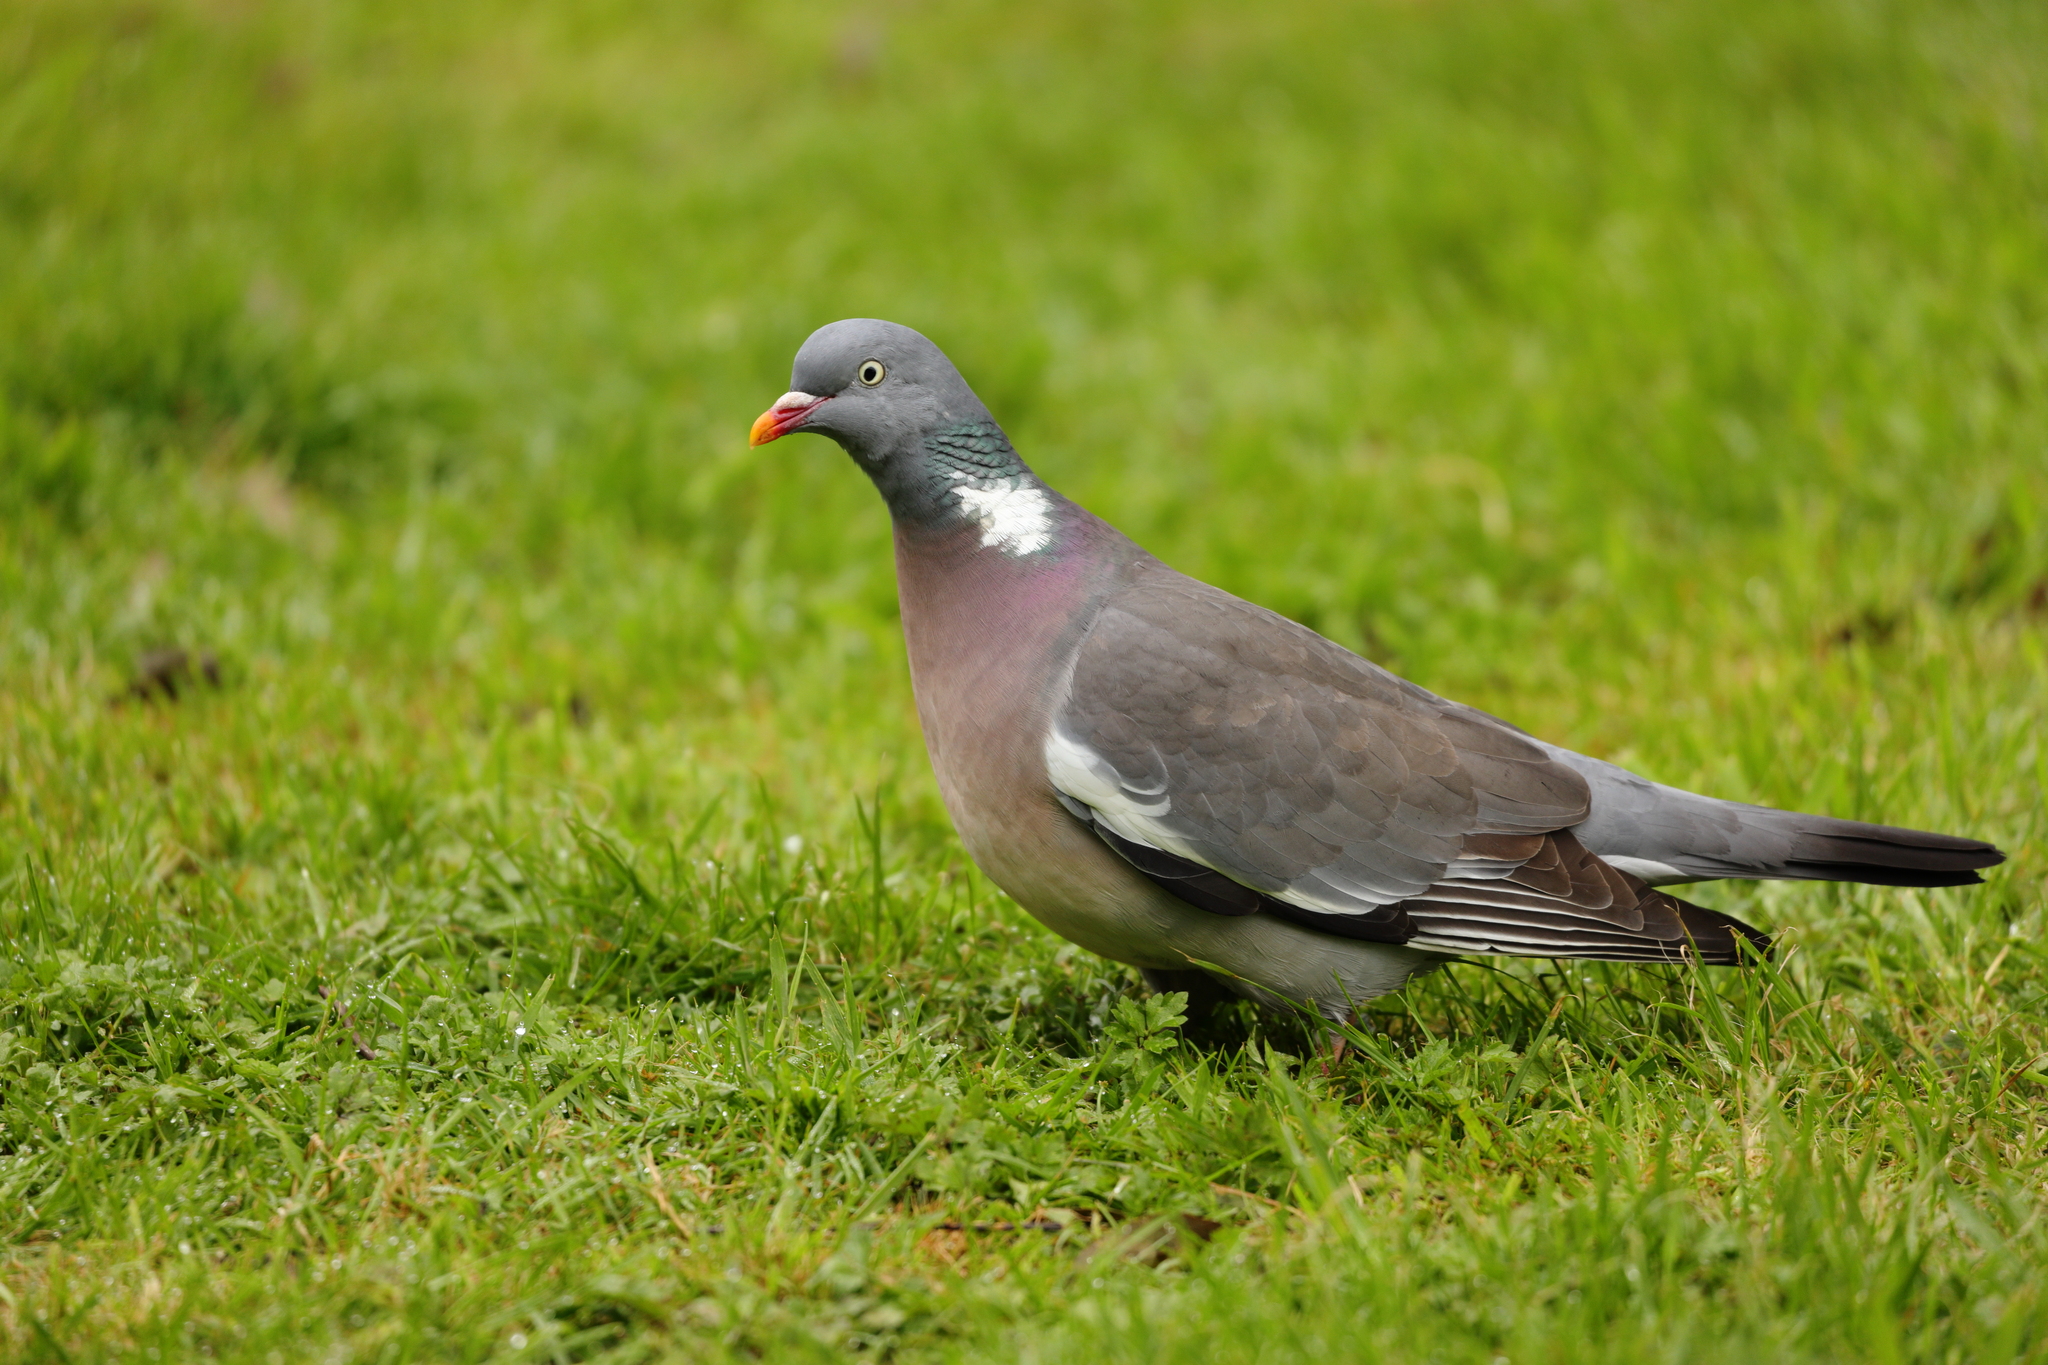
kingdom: Animalia
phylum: Chordata
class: Aves
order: Columbiformes
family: Columbidae
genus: Columba
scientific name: Columba palumbus
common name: Common wood pigeon
